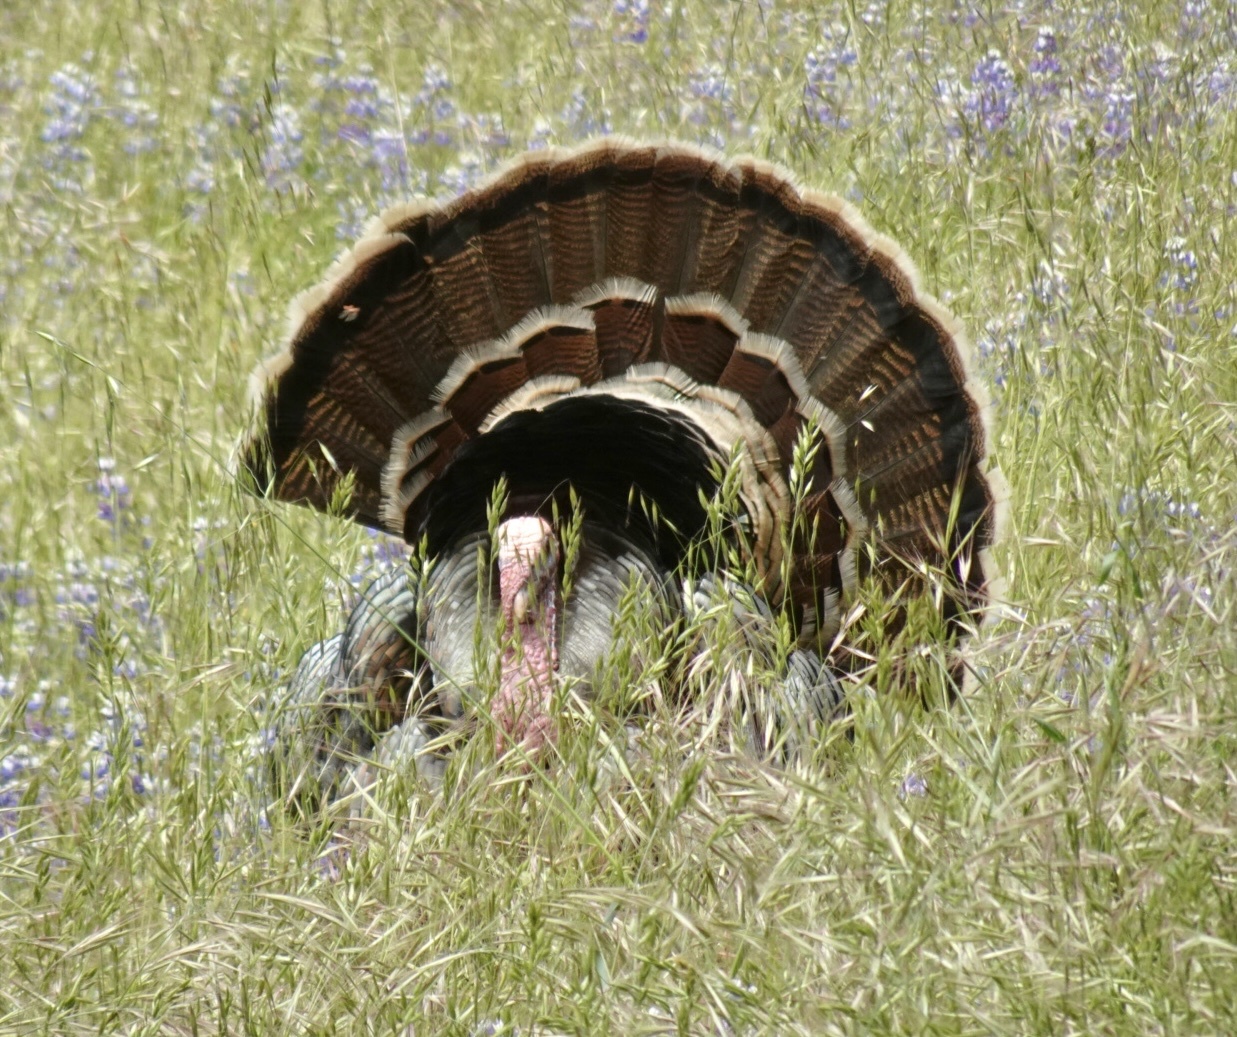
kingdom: Animalia
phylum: Chordata
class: Aves
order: Galliformes
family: Phasianidae
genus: Meleagris
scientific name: Meleagris gallopavo
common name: Wild turkey
